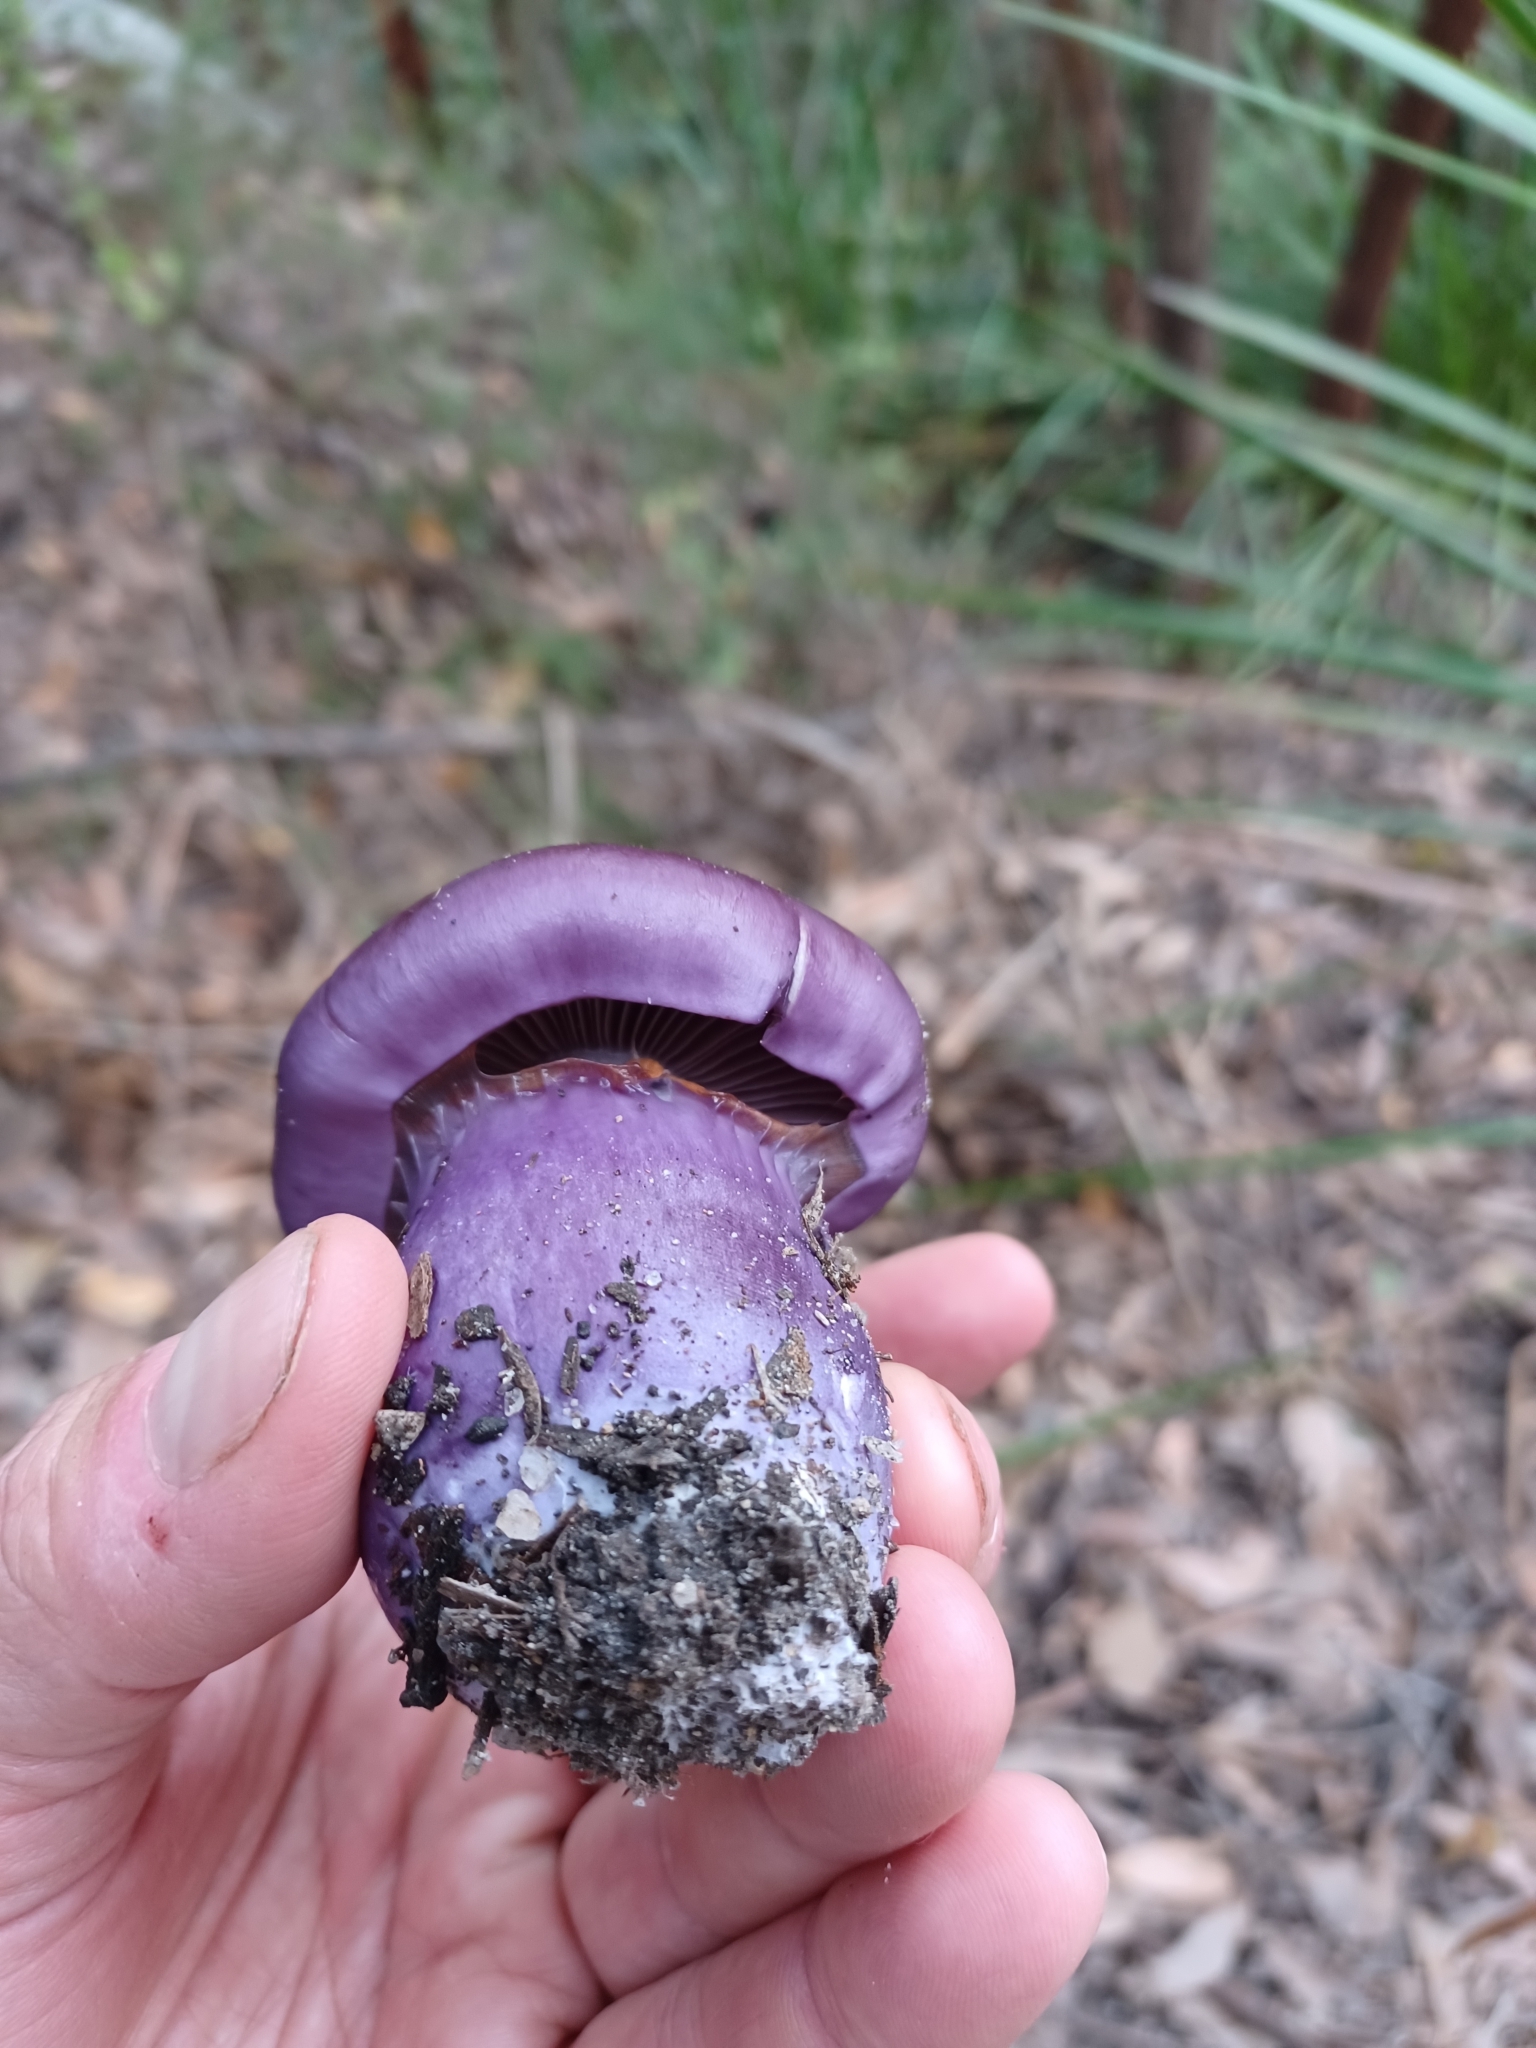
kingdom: Fungi
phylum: Basidiomycota
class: Agaricomycetes
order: Agaricales
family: Cortinariaceae
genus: Cortinarius
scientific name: Cortinarius archeri
